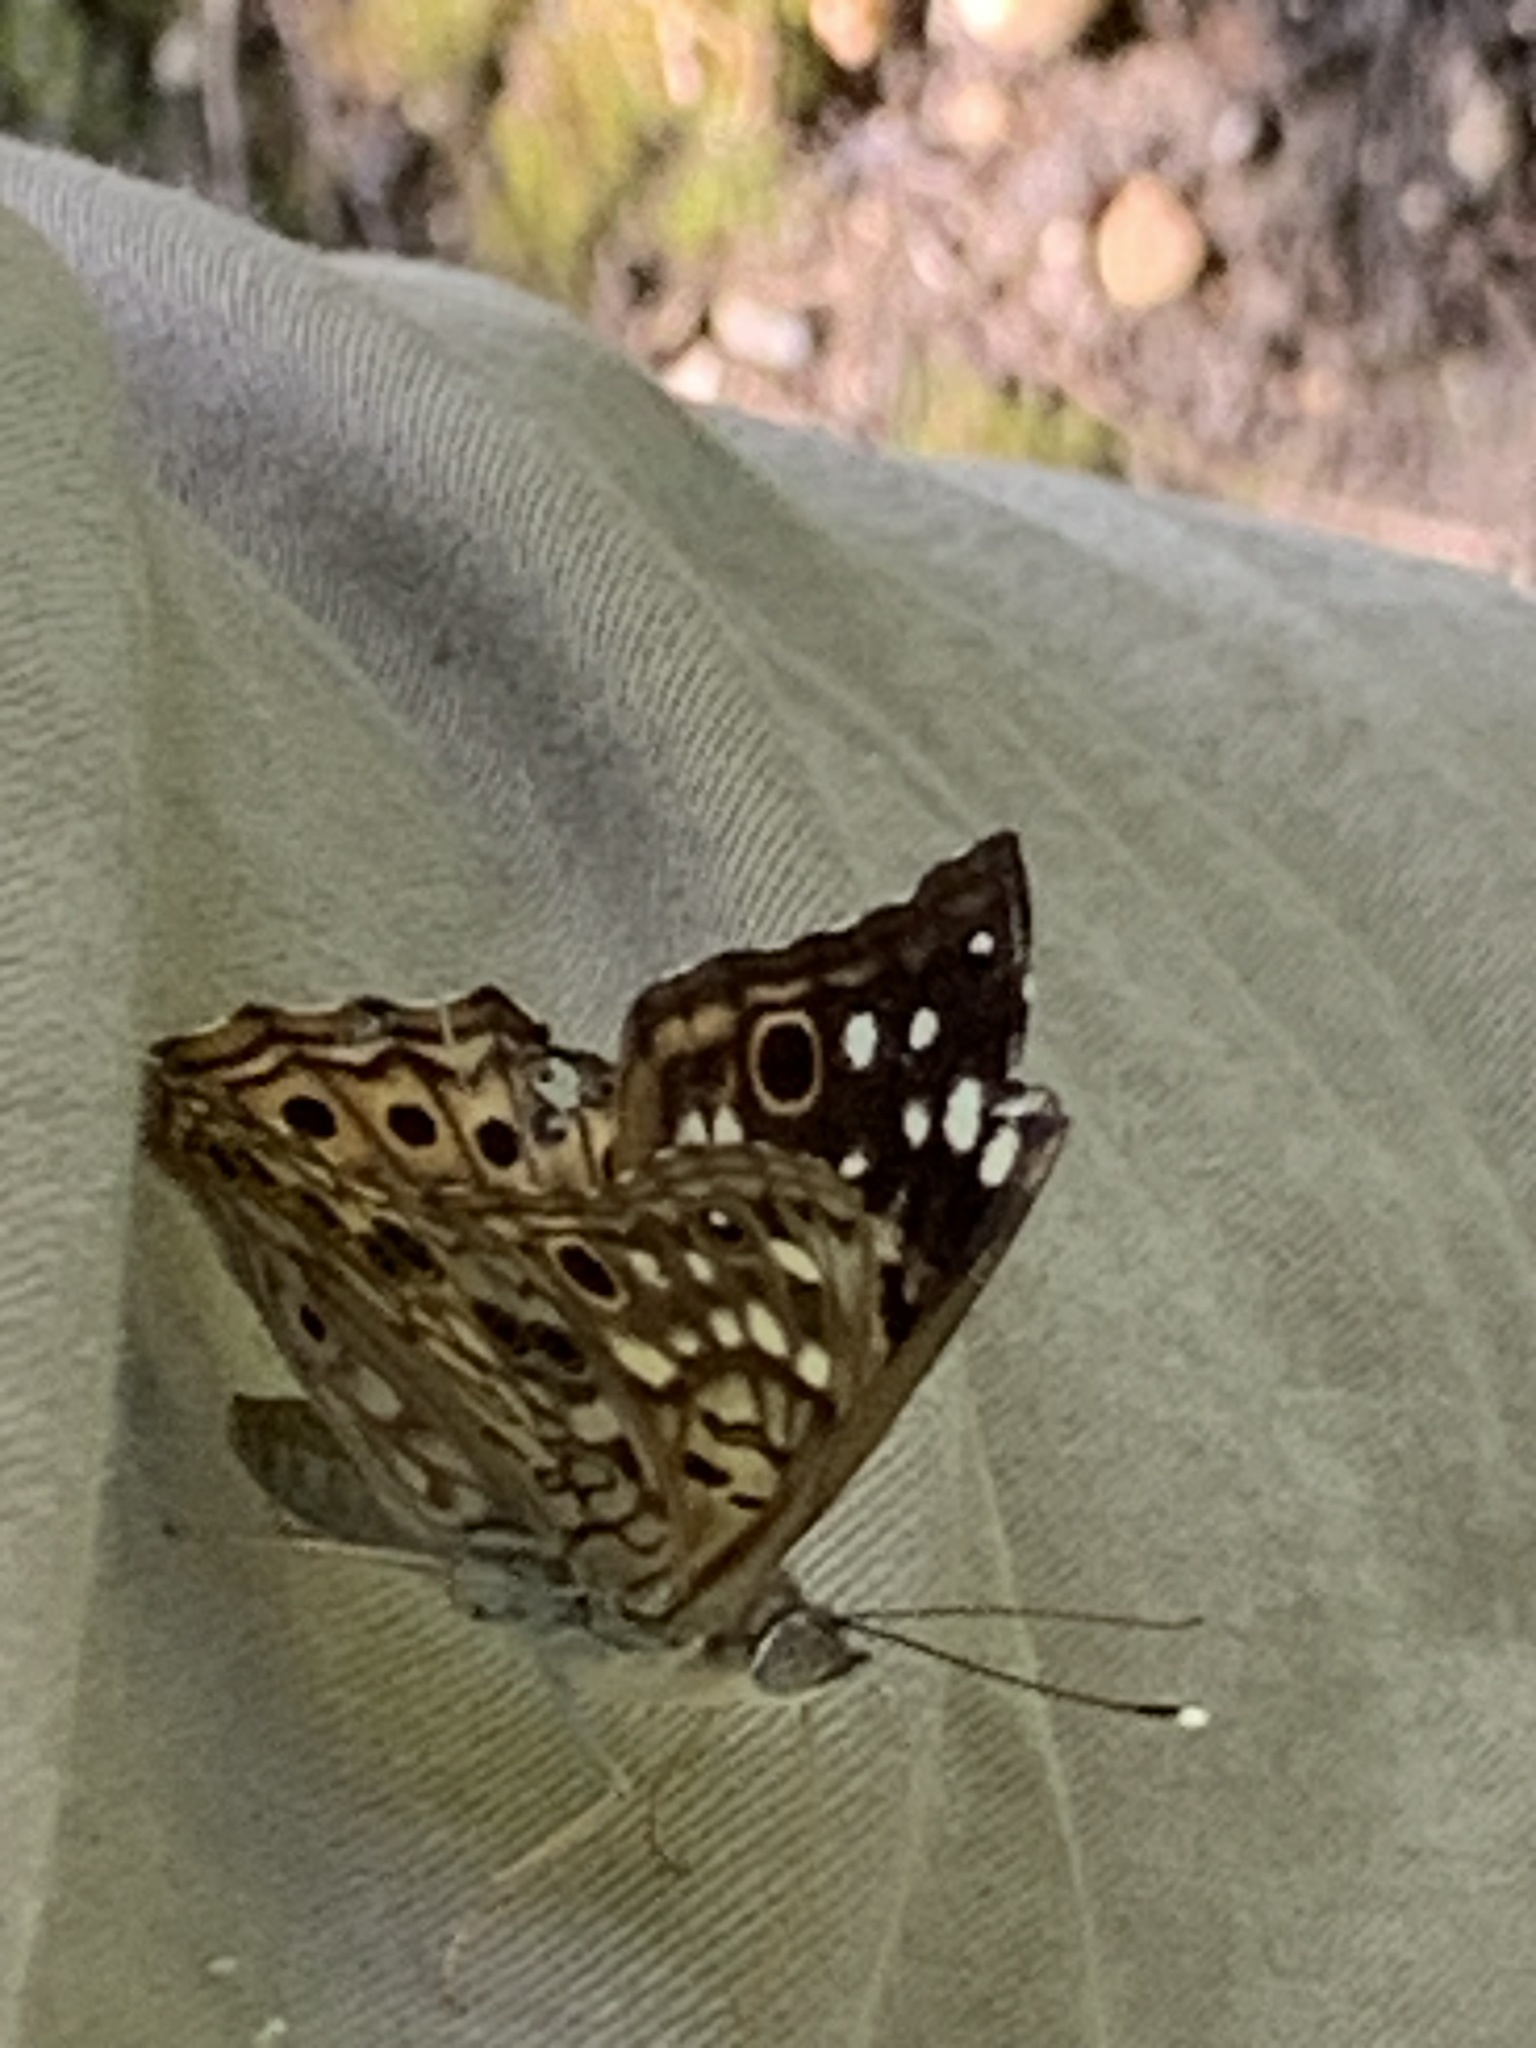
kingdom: Animalia
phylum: Arthropoda
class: Insecta
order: Lepidoptera
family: Nymphalidae
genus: Asterocampa
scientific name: Asterocampa celtis
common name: Hackberry emperor
